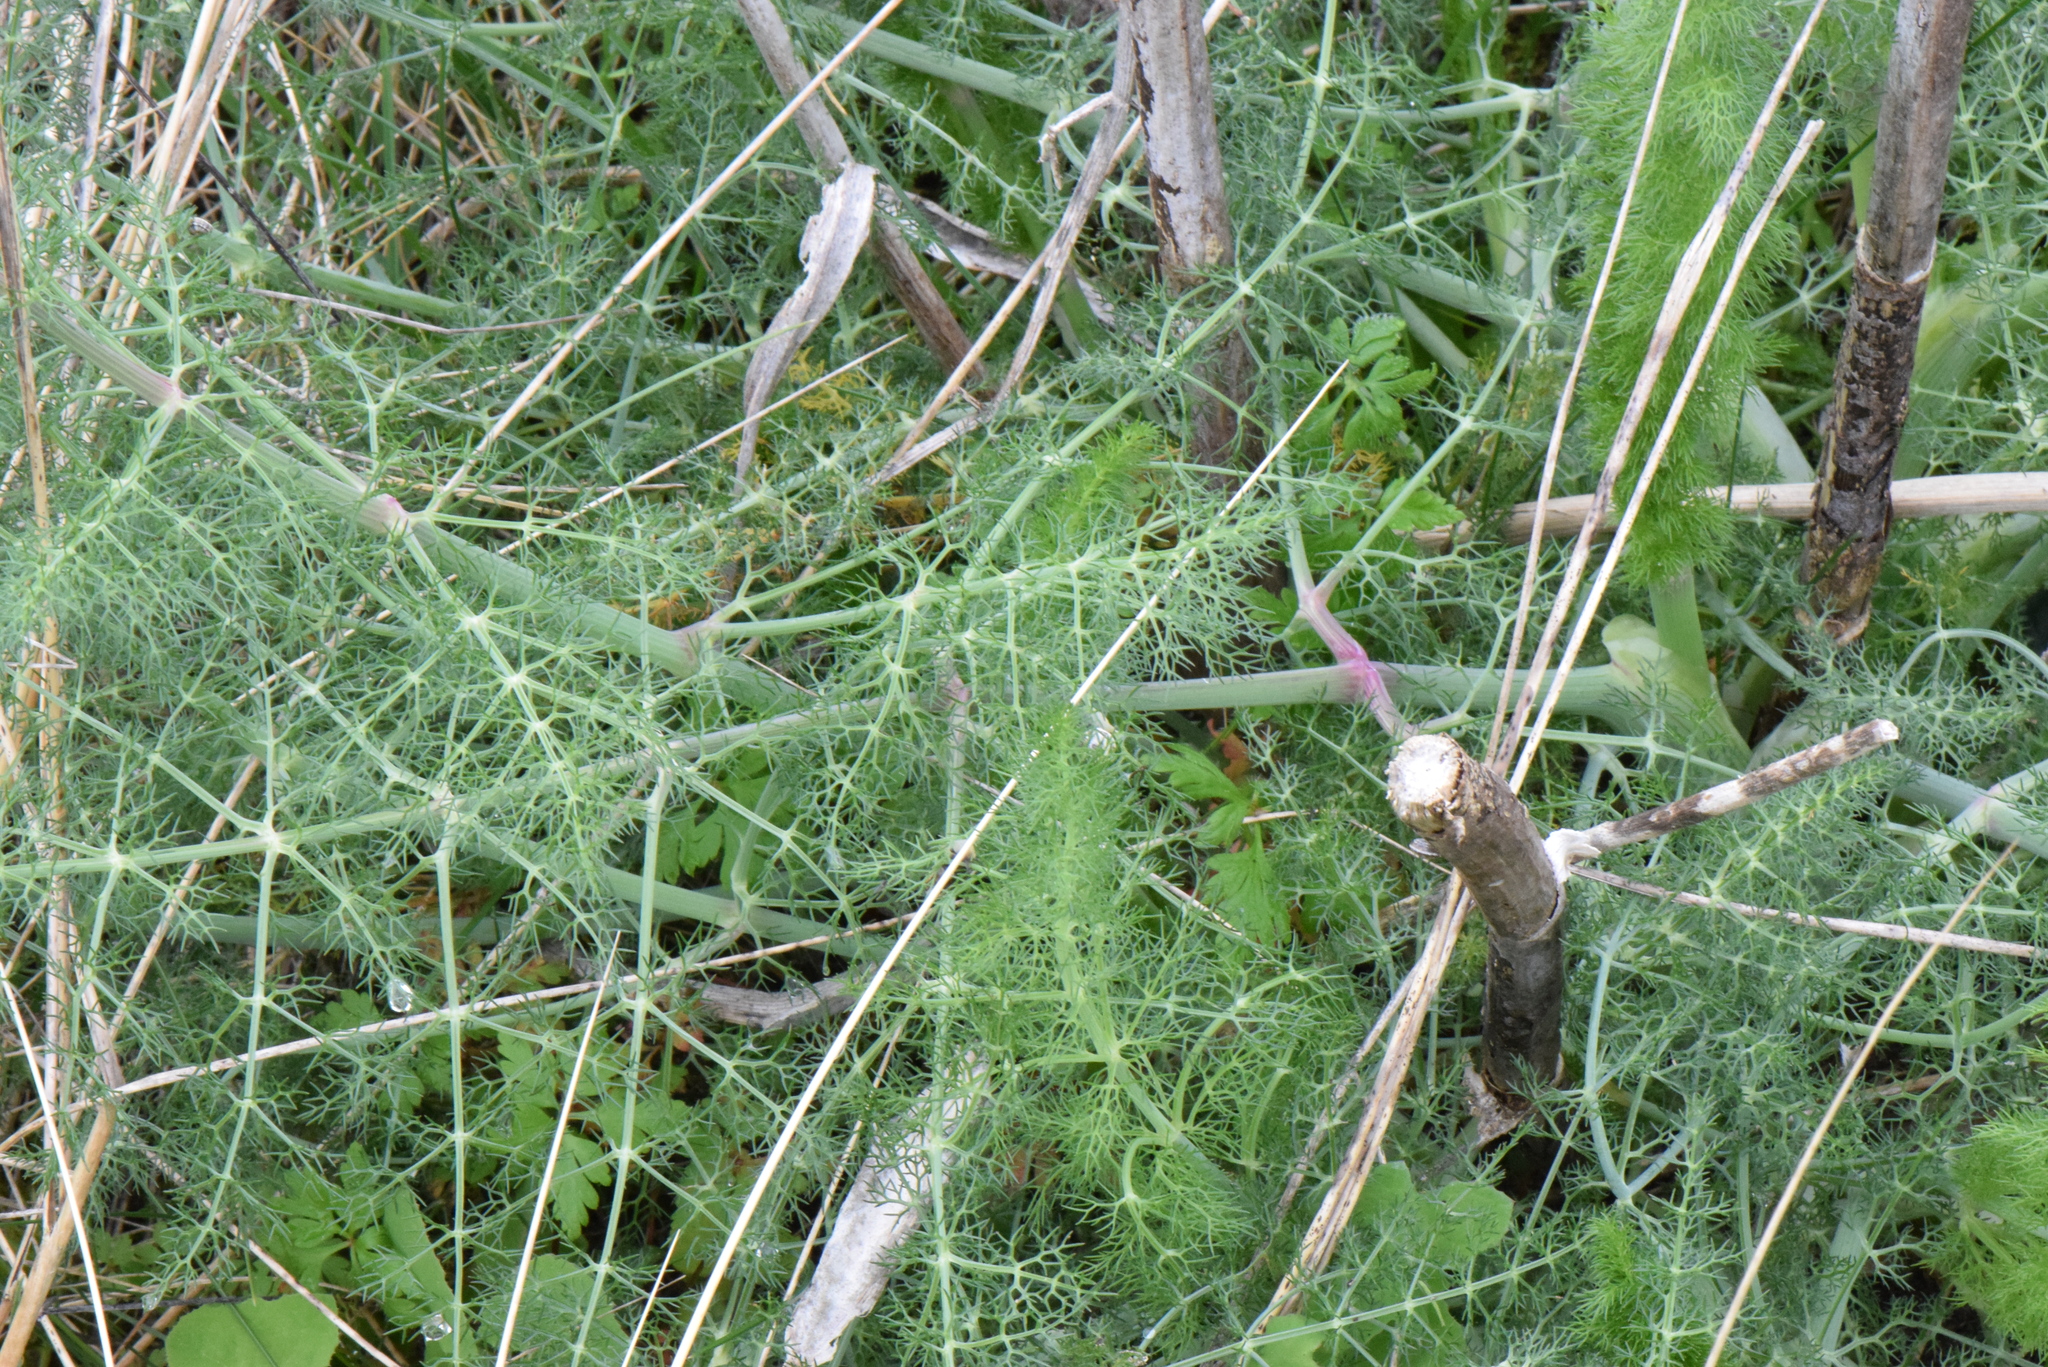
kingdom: Plantae
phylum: Tracheophyta
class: Magnoliopsida
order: Apiales
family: Apiaceae
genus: Foeniculum
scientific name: Foeniculum vulgare
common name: Fennel
